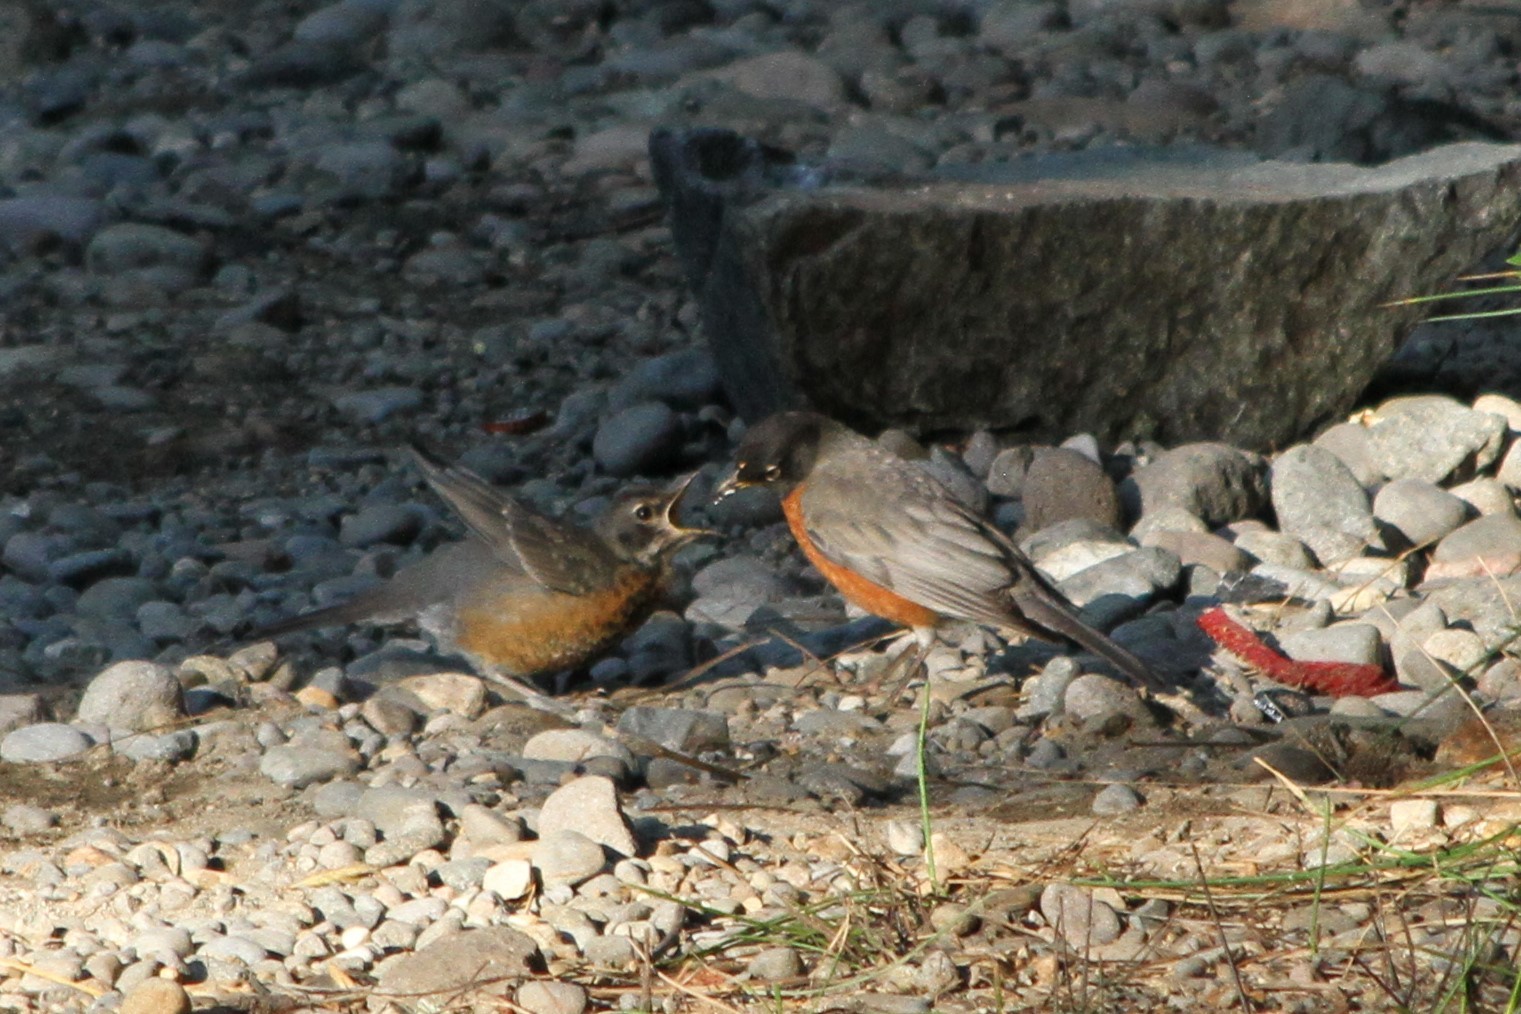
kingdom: Animalia
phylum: Chordata
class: Aves
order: Passeriformes
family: Turdidae
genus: Turdus
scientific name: Turdus migratorius
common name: American robin
